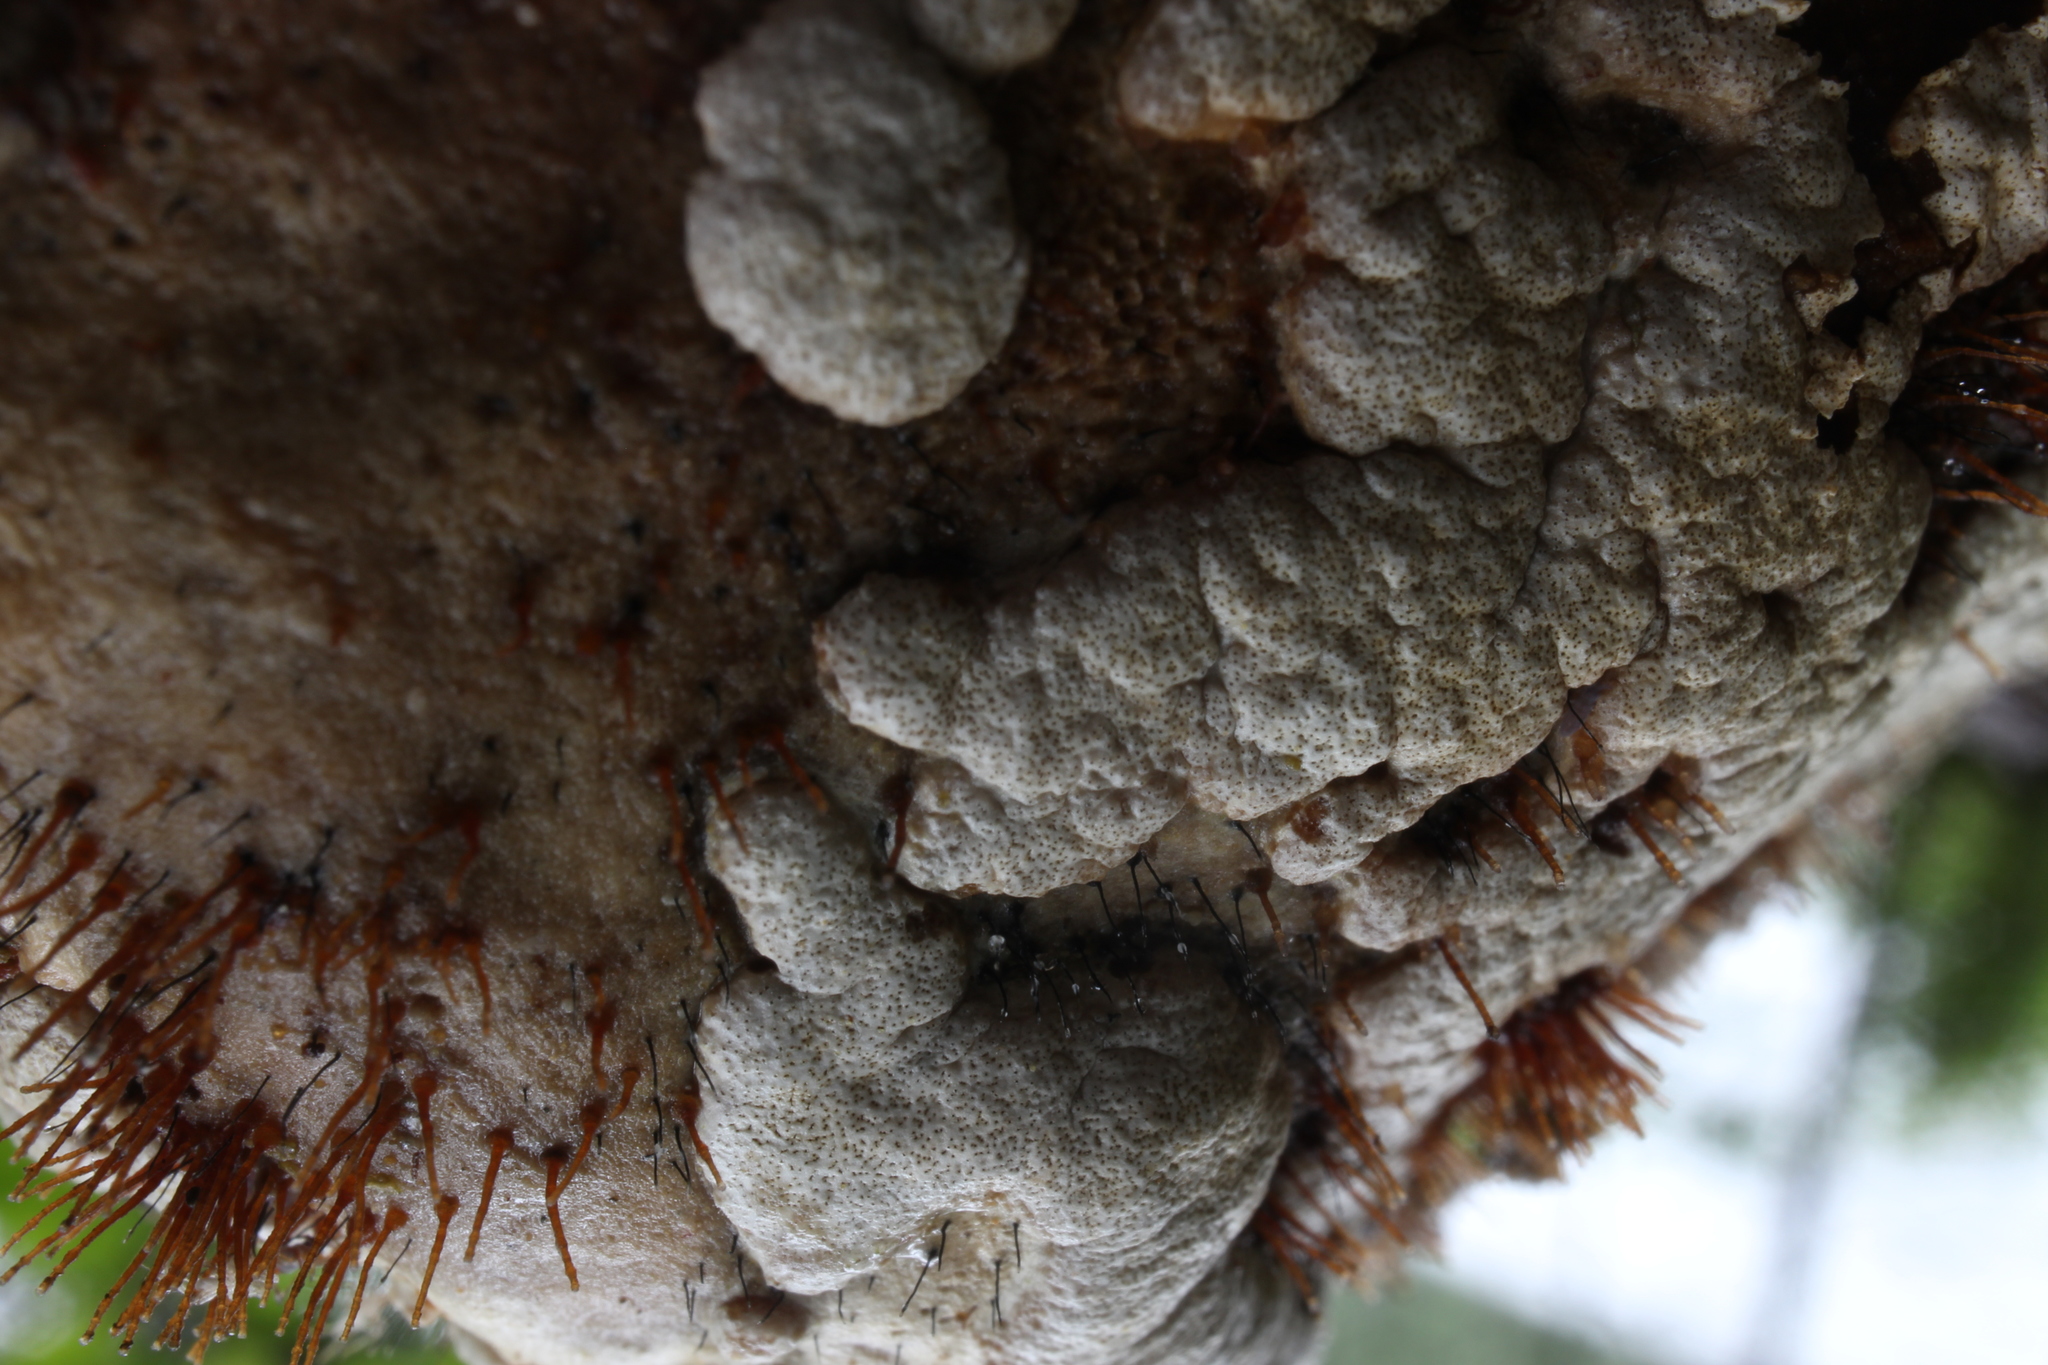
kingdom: Fungi
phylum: Ascomycota
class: Sordariomycetes
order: Hypocreales
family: Hypocreaceae
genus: Trichoderma
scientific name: Trichoderma pulvinatum
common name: Ochre cushion
